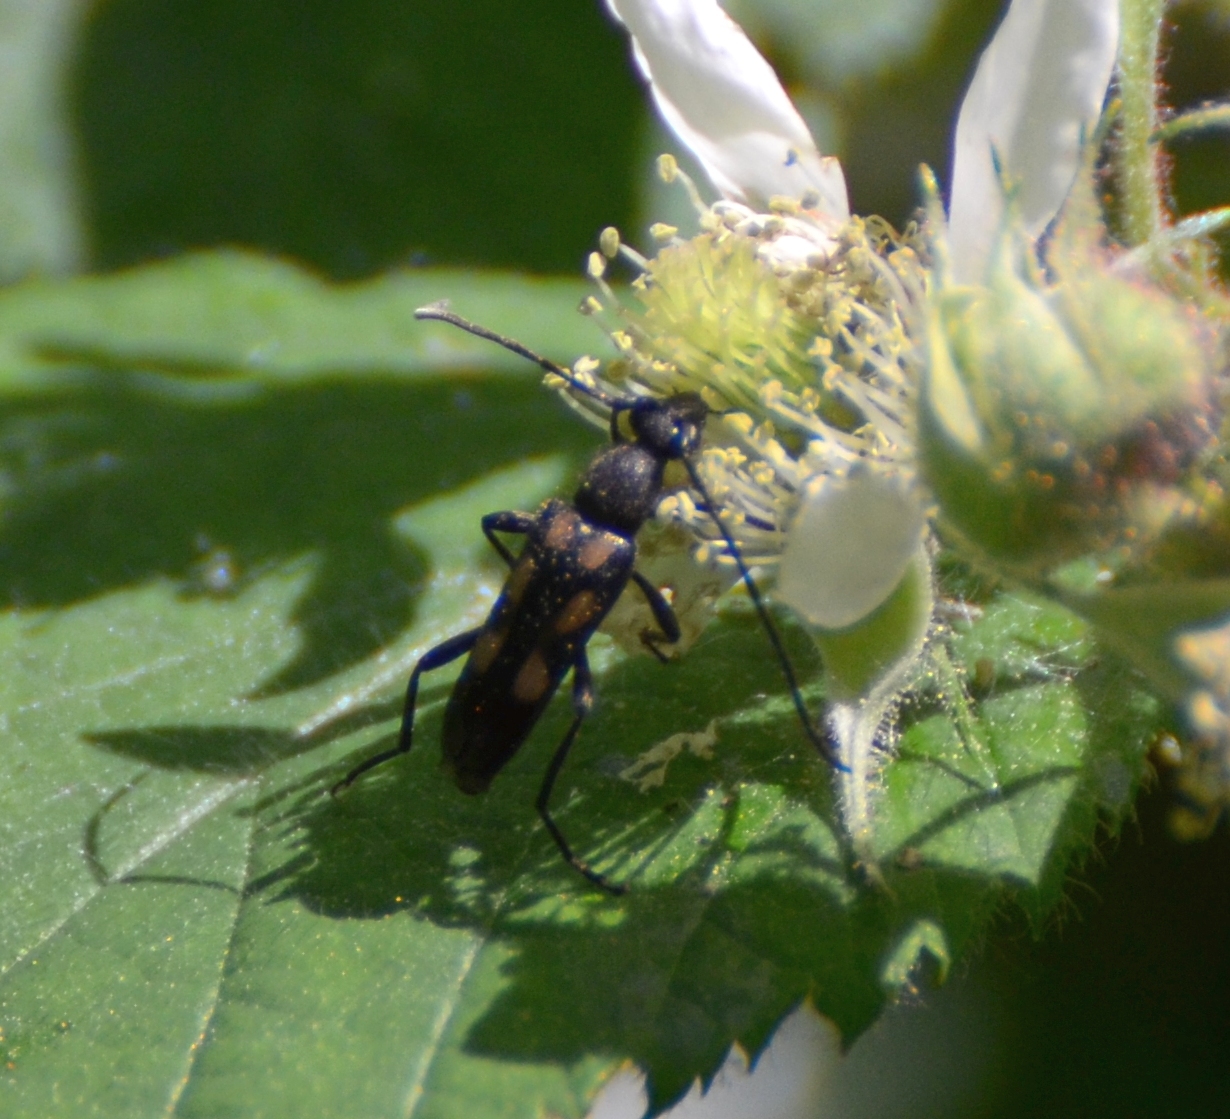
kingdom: Animalia
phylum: Arthropoda
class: Insecta
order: Coleoptera
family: Cerambycidae
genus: Anoplodera
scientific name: Anoplodera sexguttata
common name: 6 spotted longhorn
